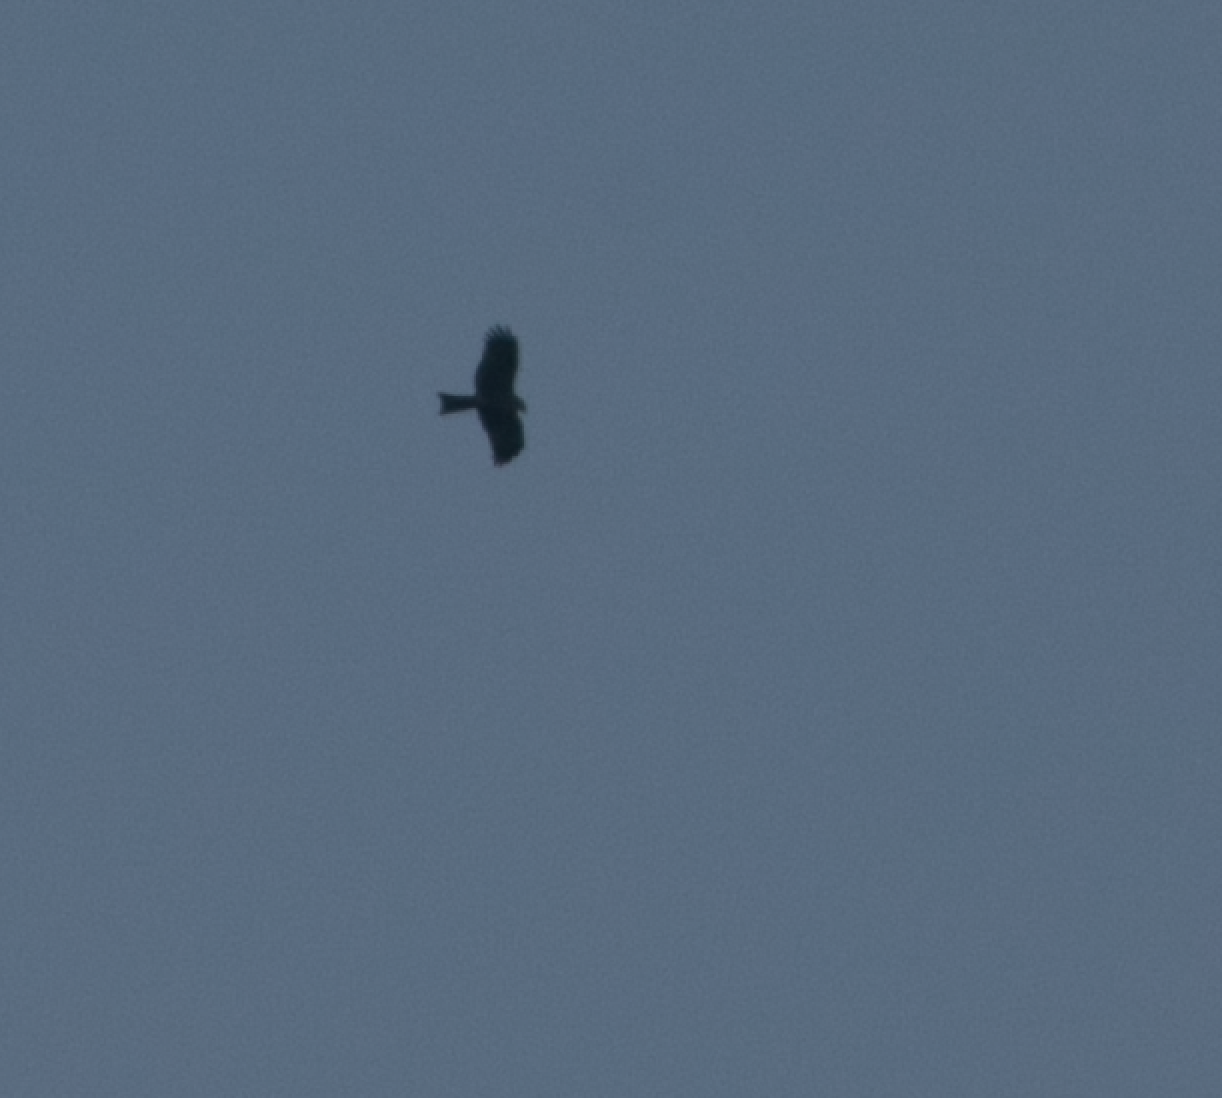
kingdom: Animalia
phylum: Chordata
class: Aves
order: Accipitriformes
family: Accipitridae
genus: Milvus
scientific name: Milvus migrans
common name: Black kite
